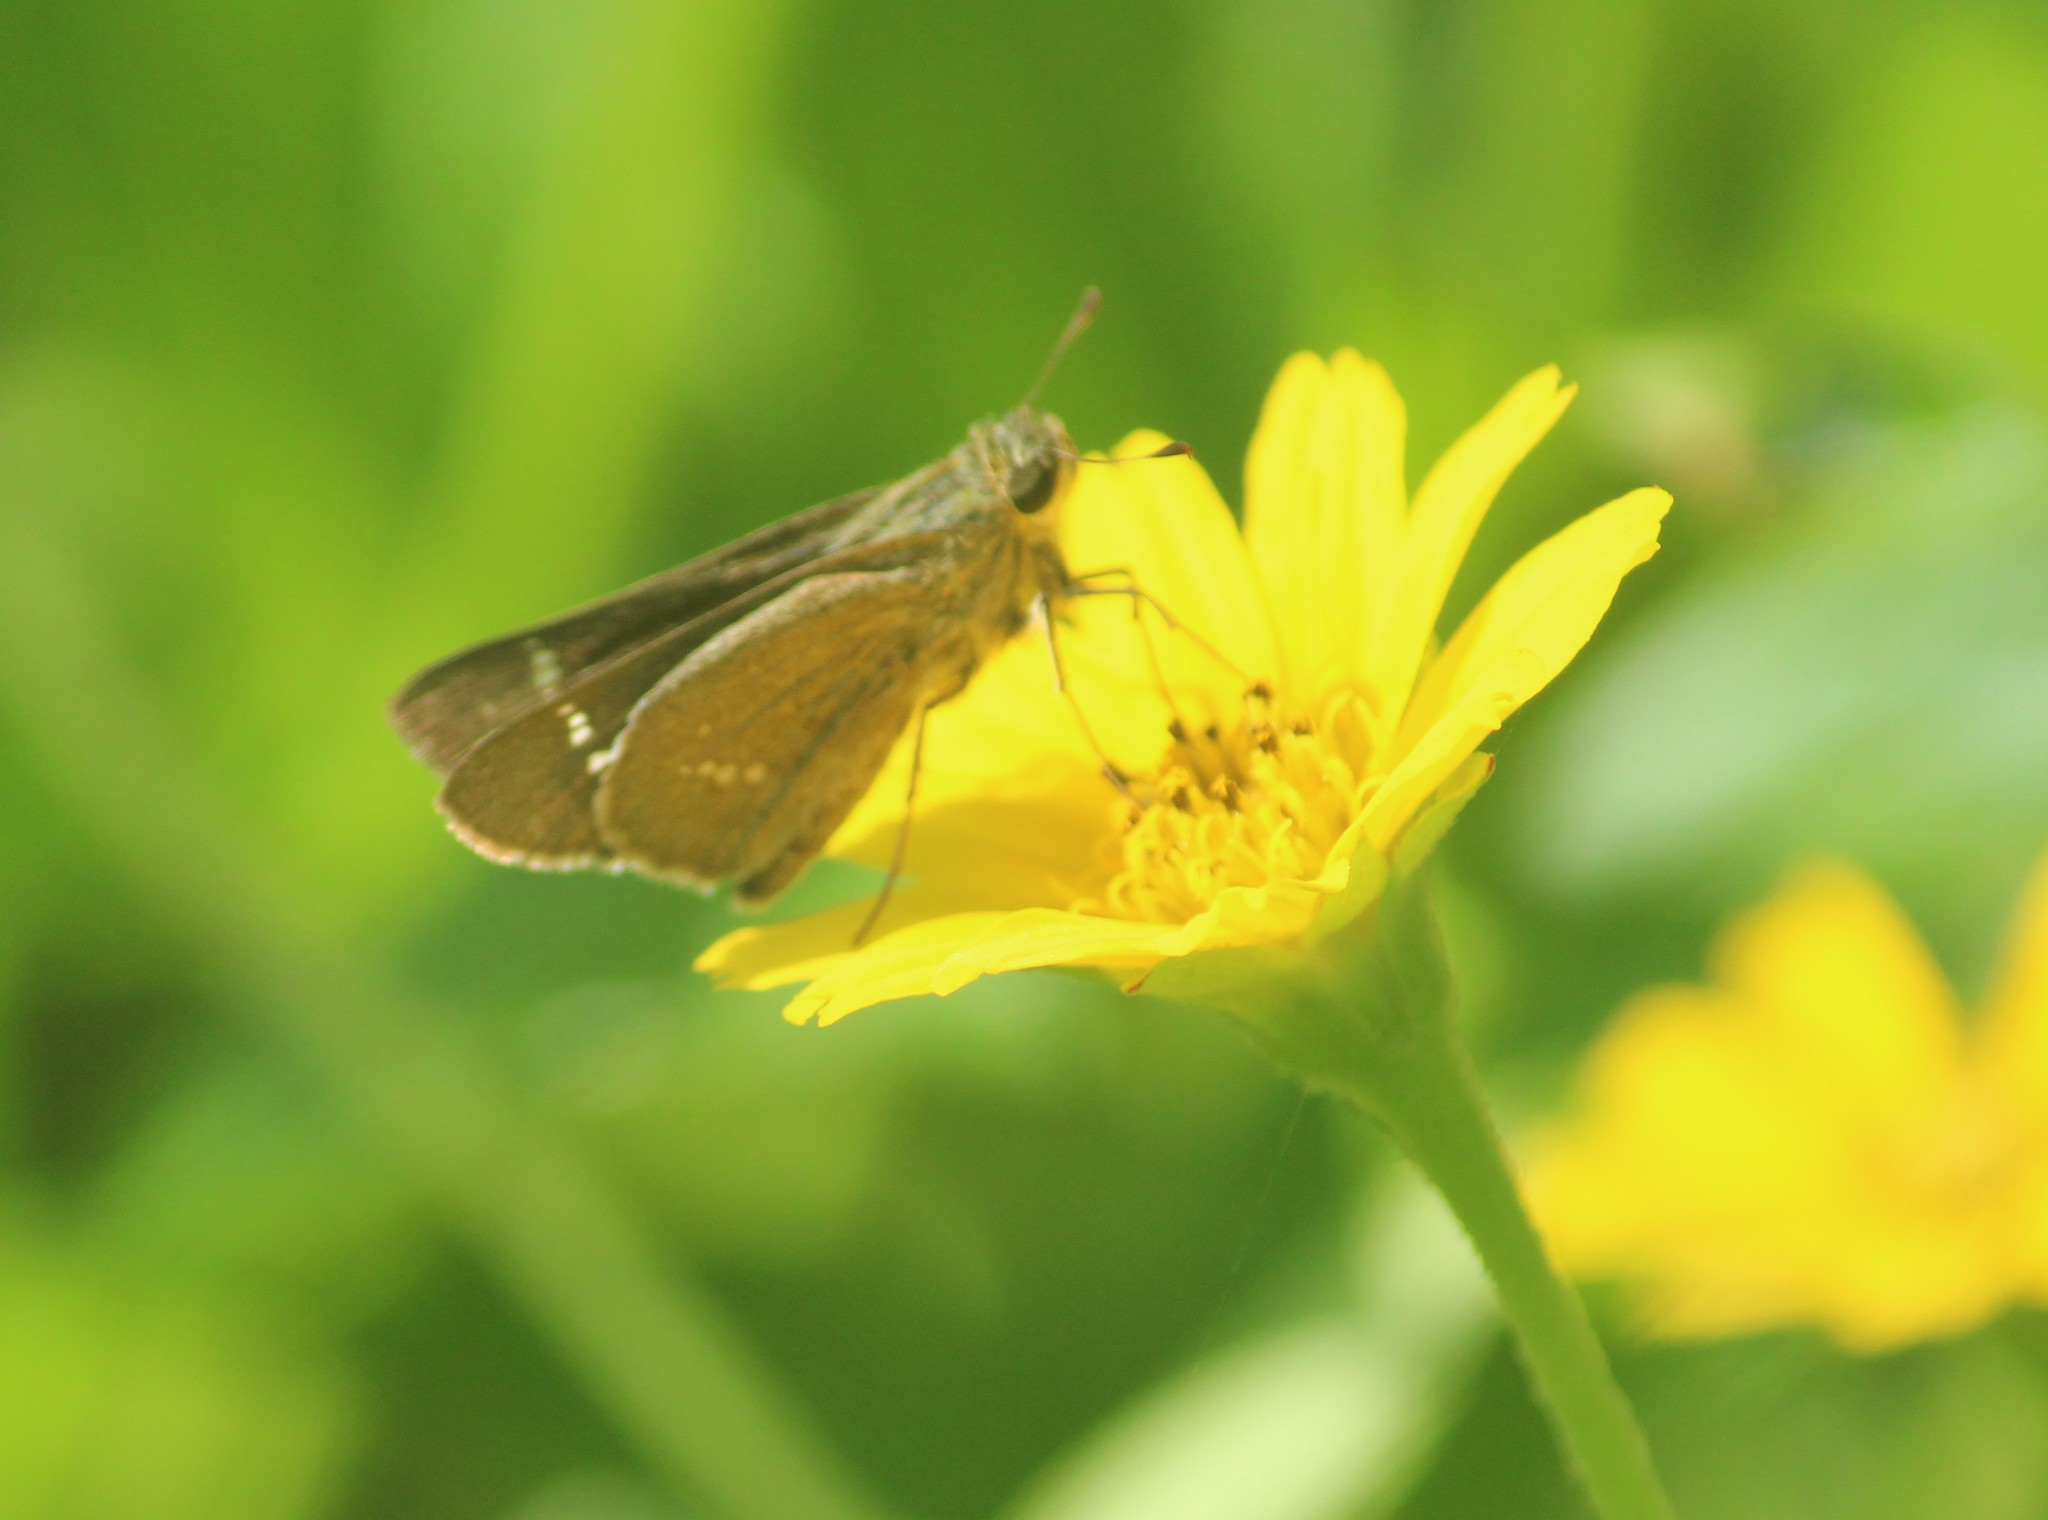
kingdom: Animalia
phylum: Arthropoda
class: Insecta
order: Lepidoptera
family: Hesperiidae
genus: Parnara
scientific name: Parnara naso
